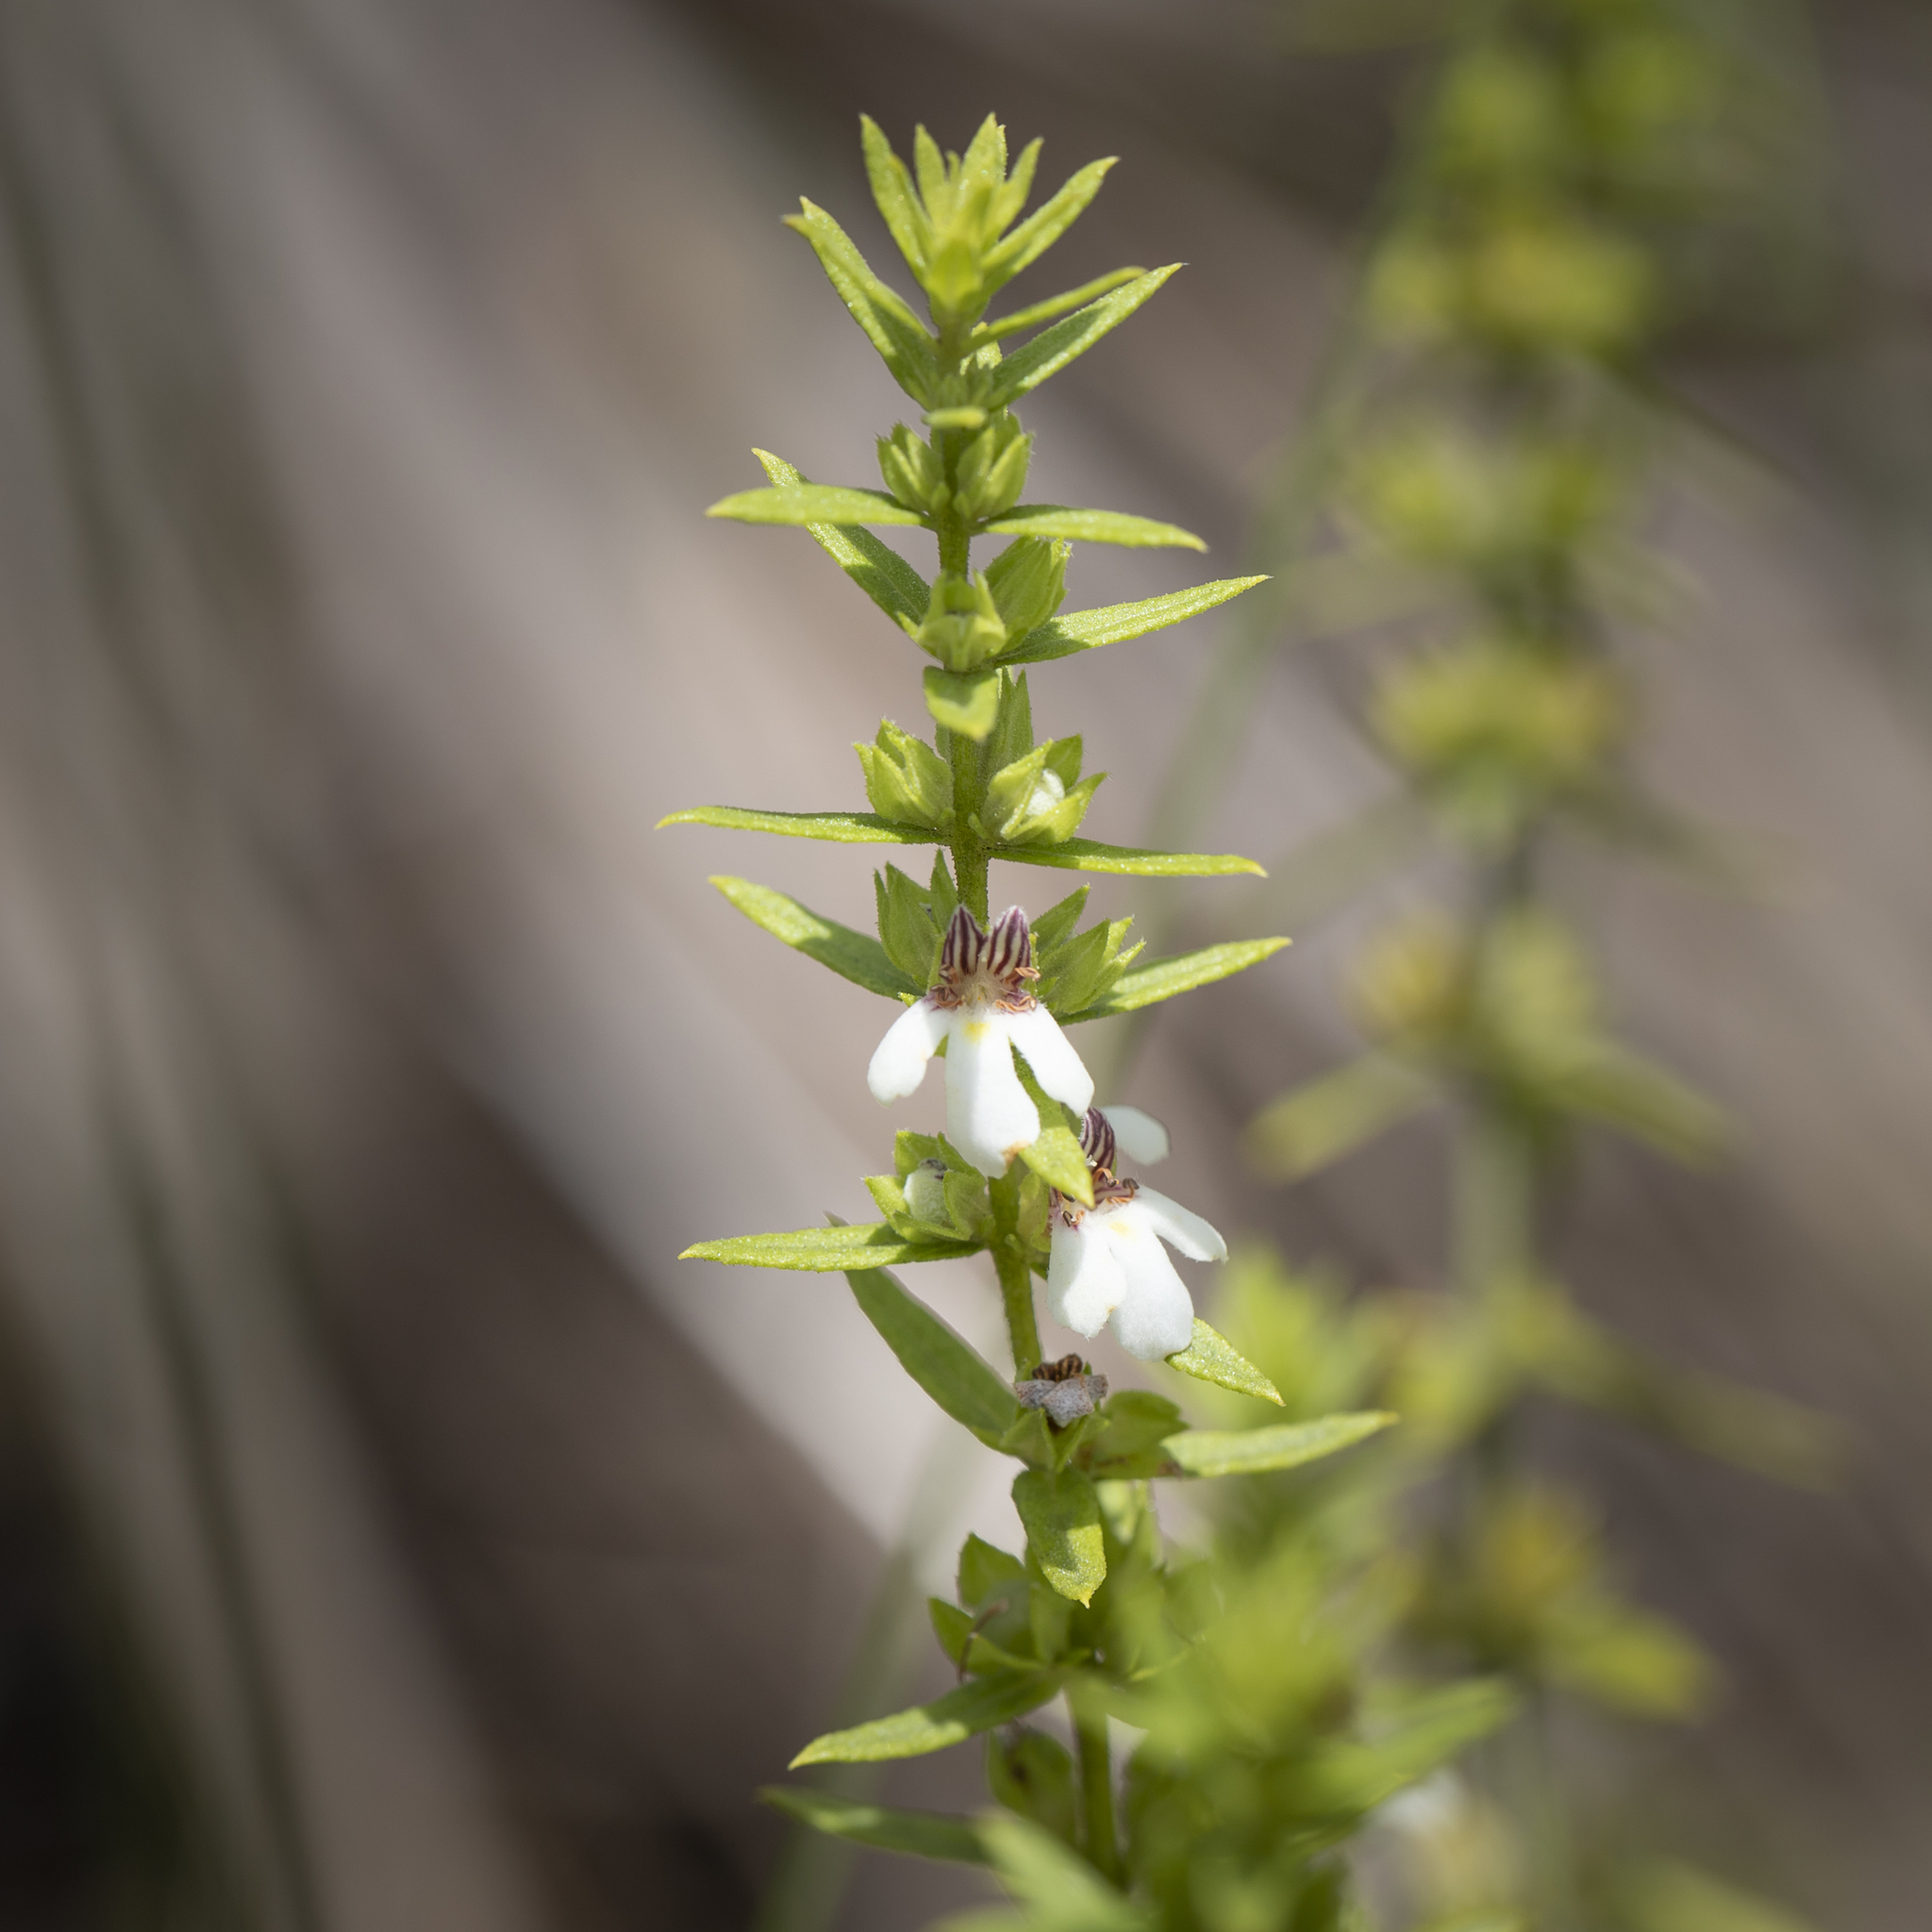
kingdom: Plantae
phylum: Tracheophyta
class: Magnoliopsida
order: Lamiales
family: Lamiaceae
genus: Pityrodia
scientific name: Pityrodia pungens
